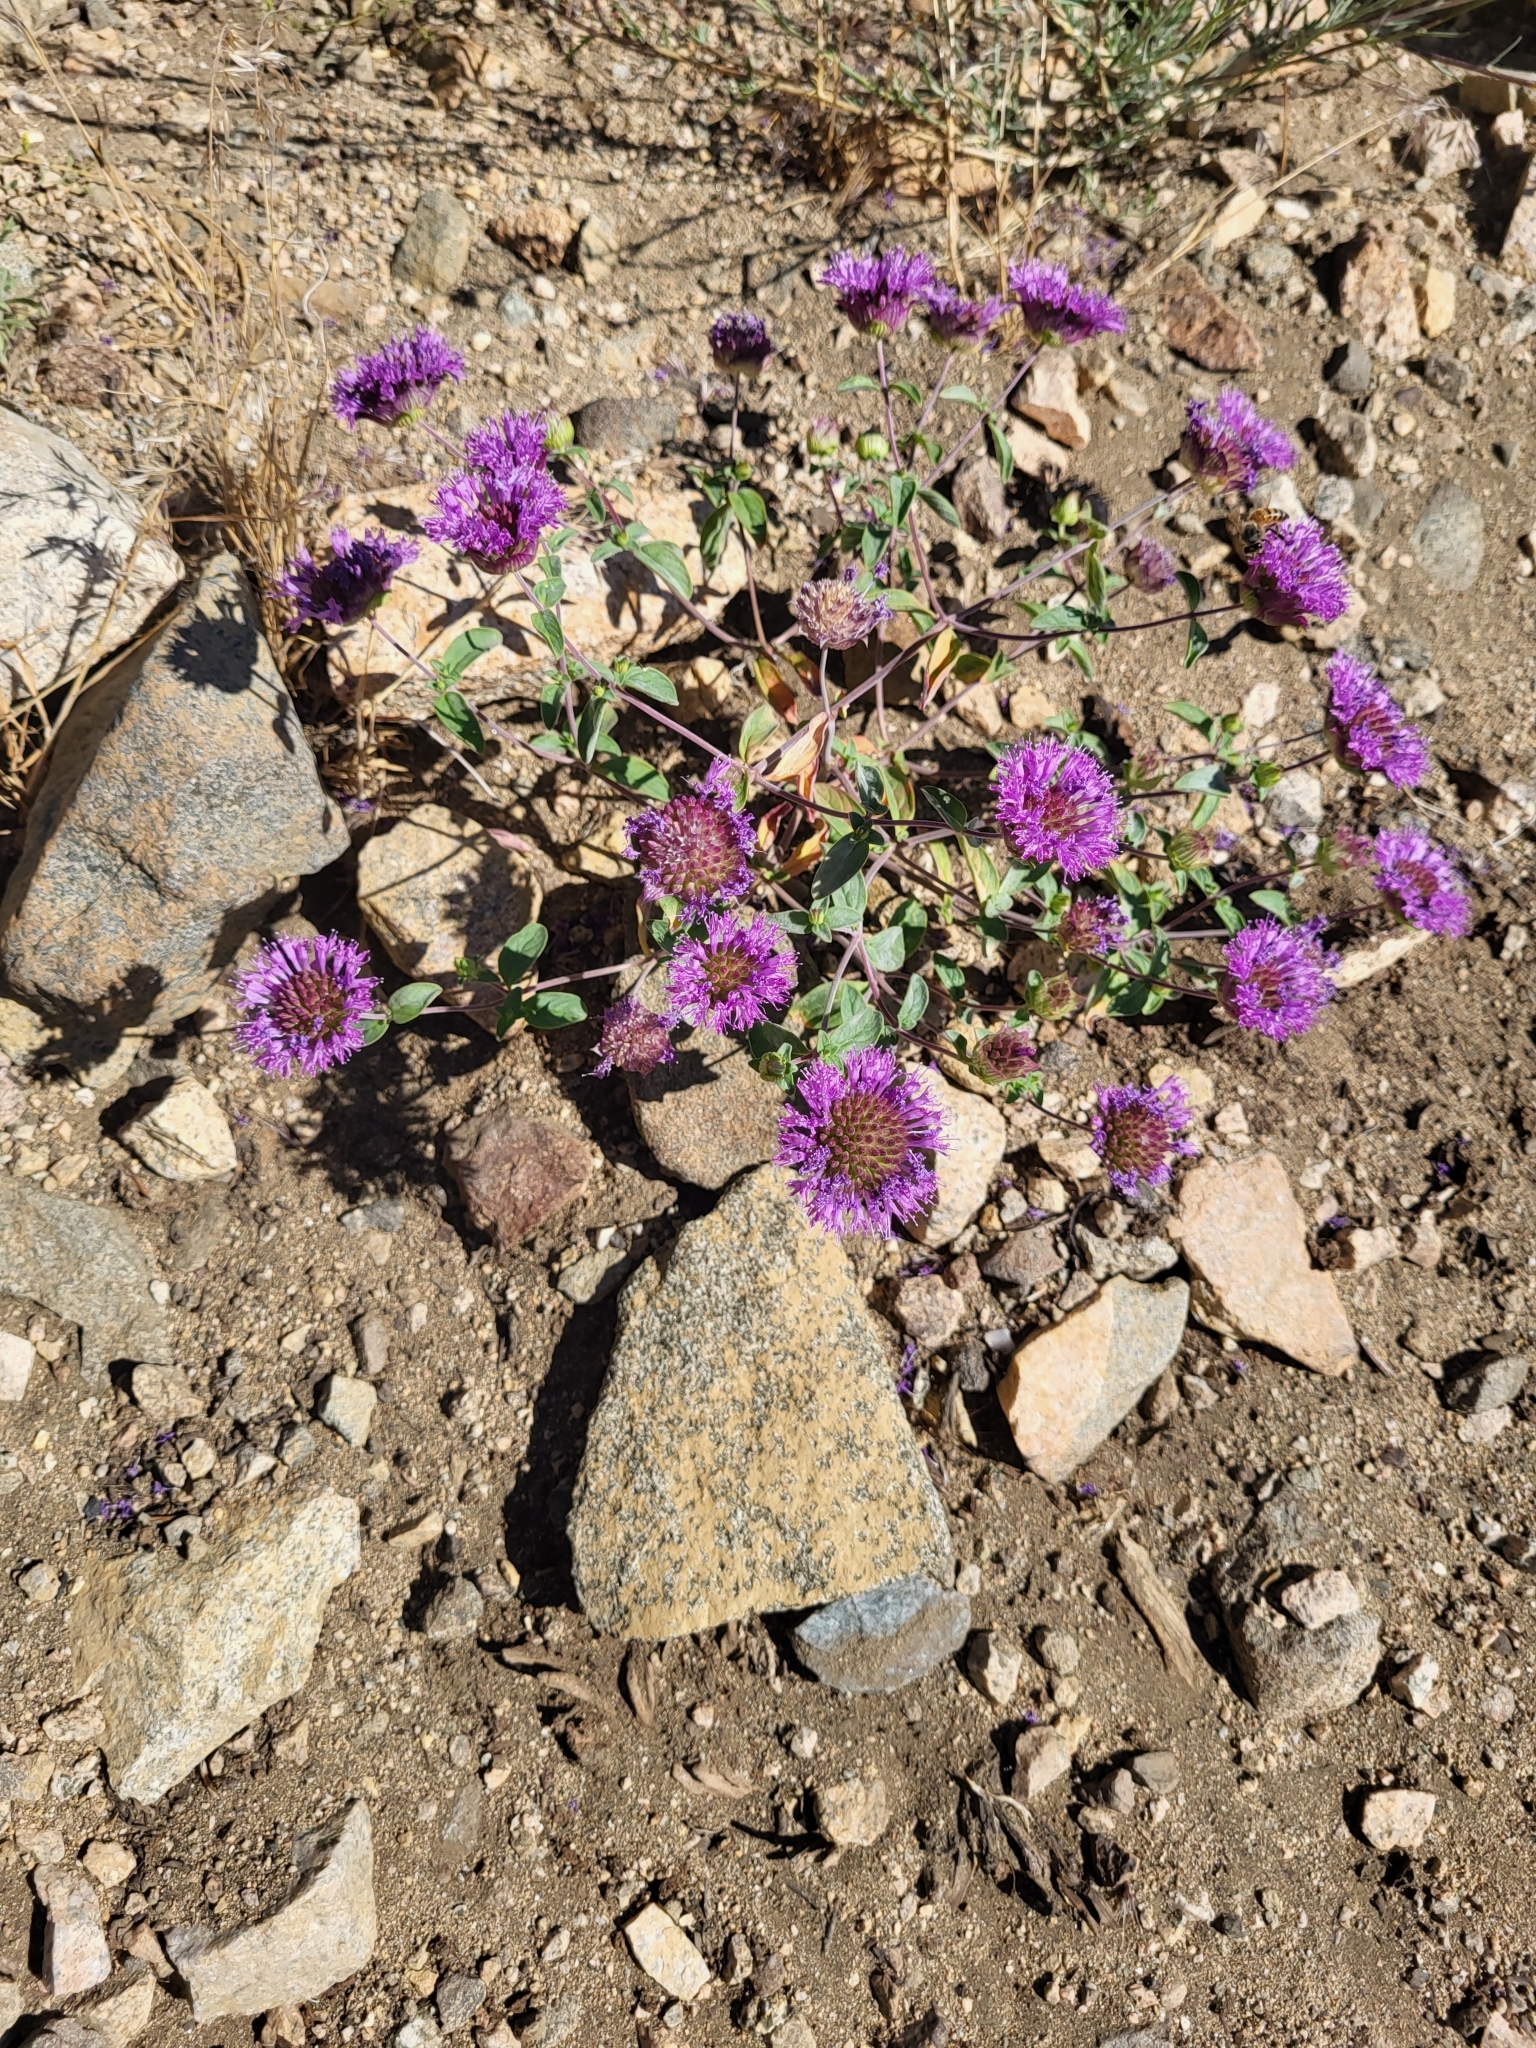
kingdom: Plantae
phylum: Tracheophyta
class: Magnoliopsida
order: Lamiales
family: Lamiaceae
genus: Monardella
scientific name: Monardella breweri
